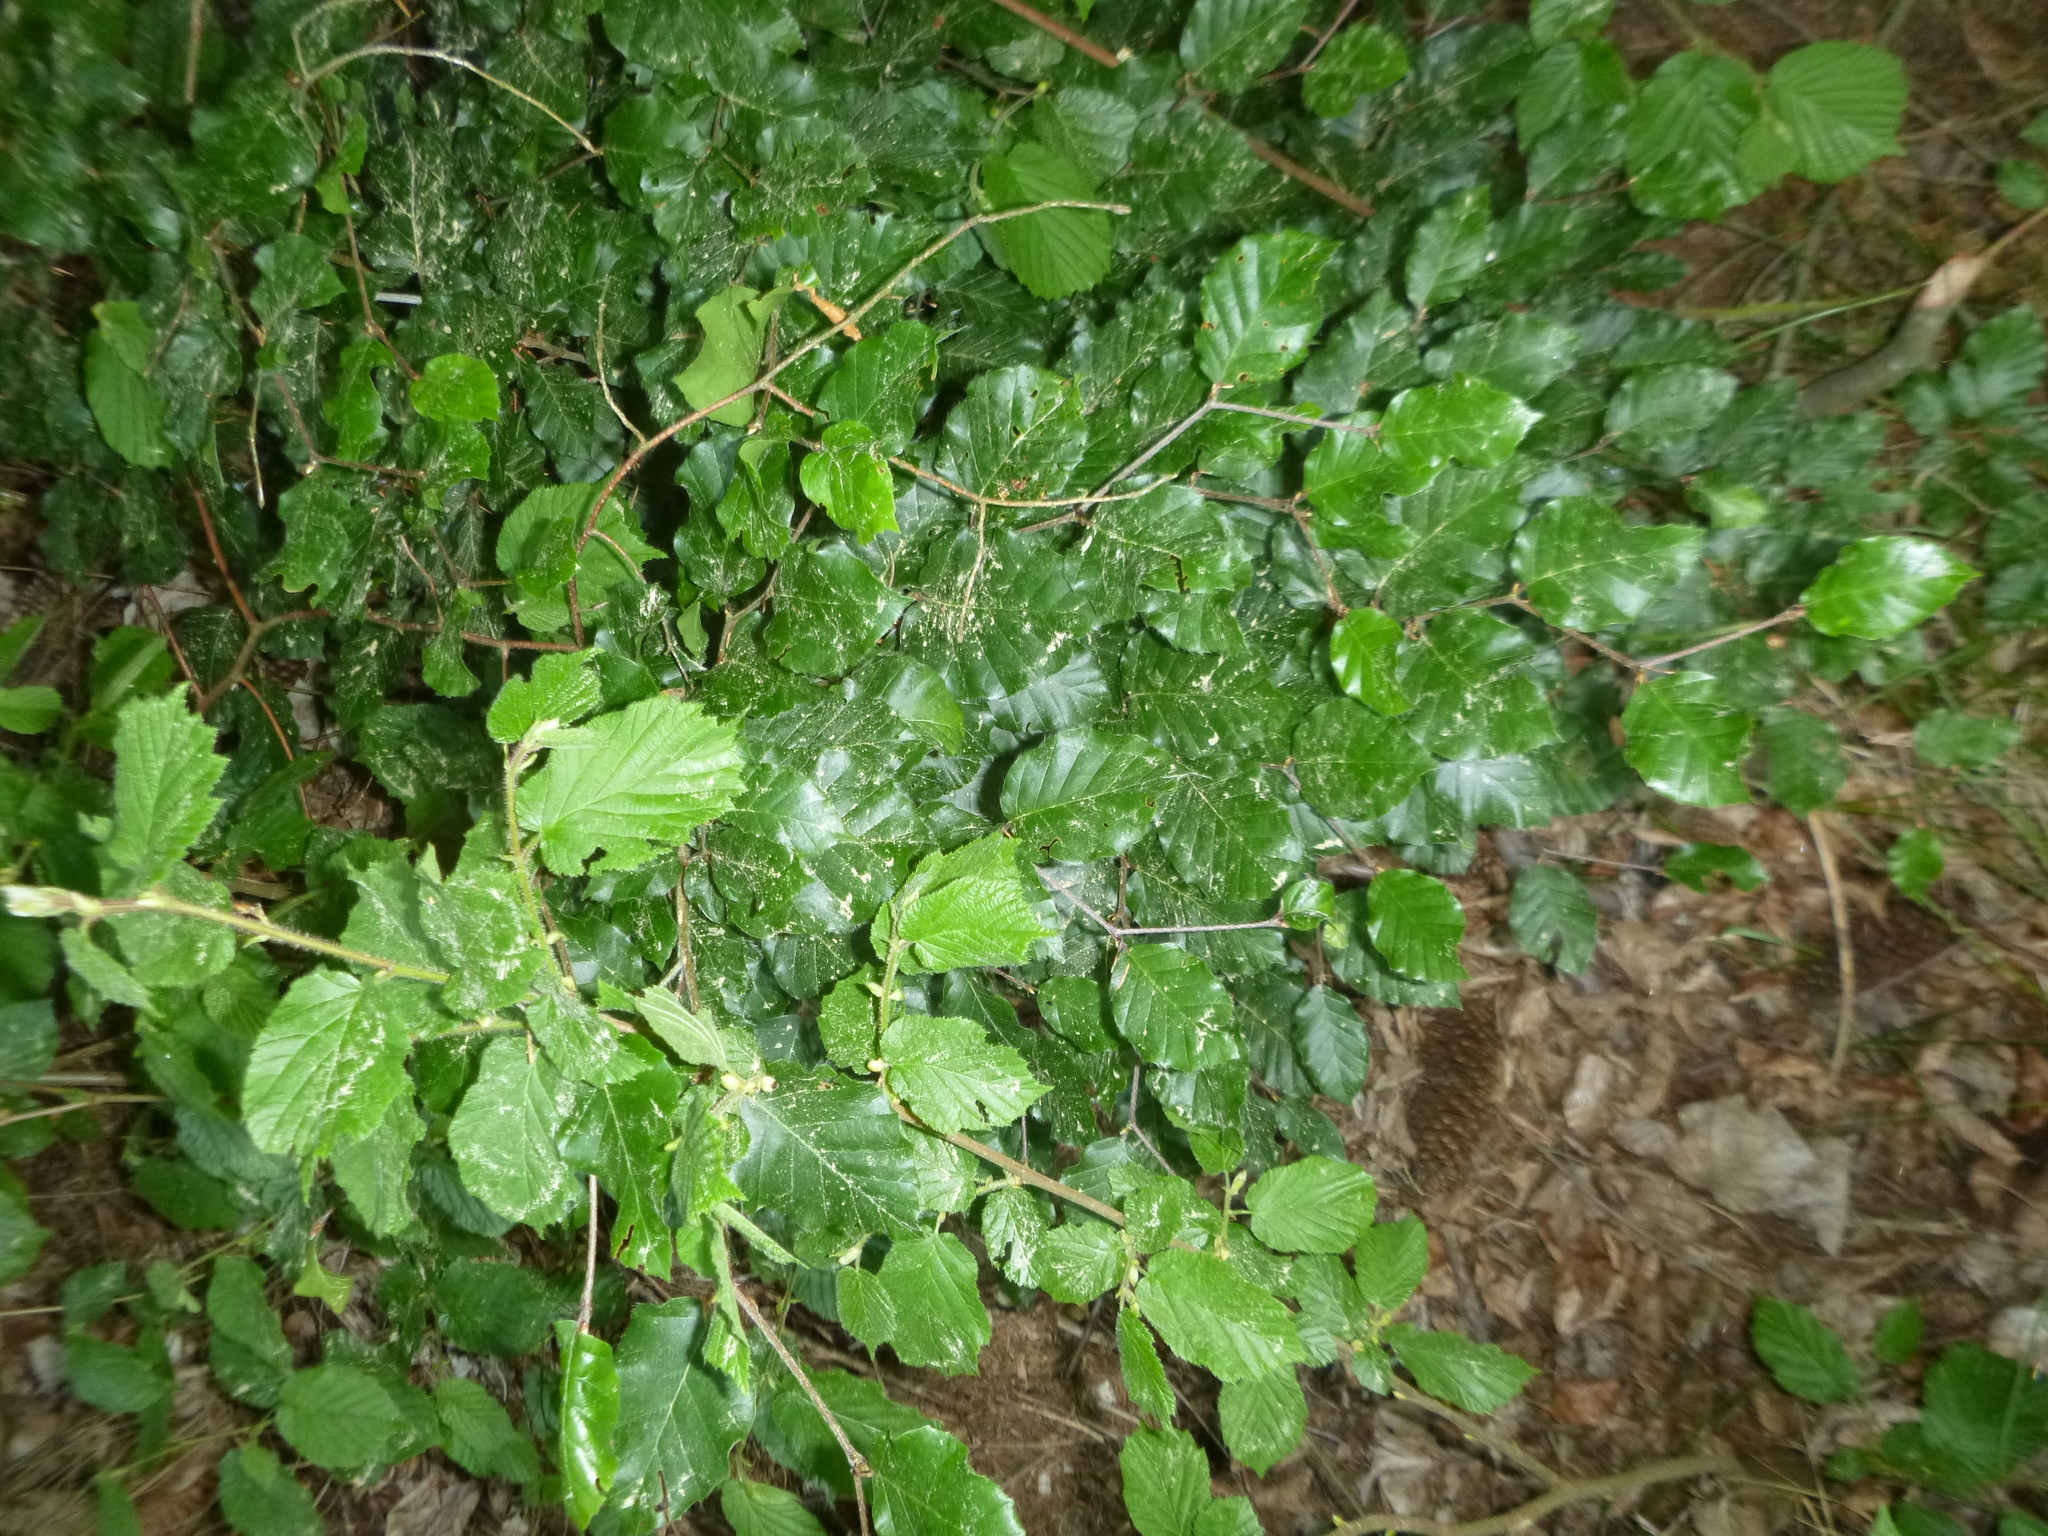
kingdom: Plantae
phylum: Tracheophyta
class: Magnoliopsida
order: Fagales
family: Fagaceae
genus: Fagus
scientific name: Fagus sylvatica
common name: Beech
